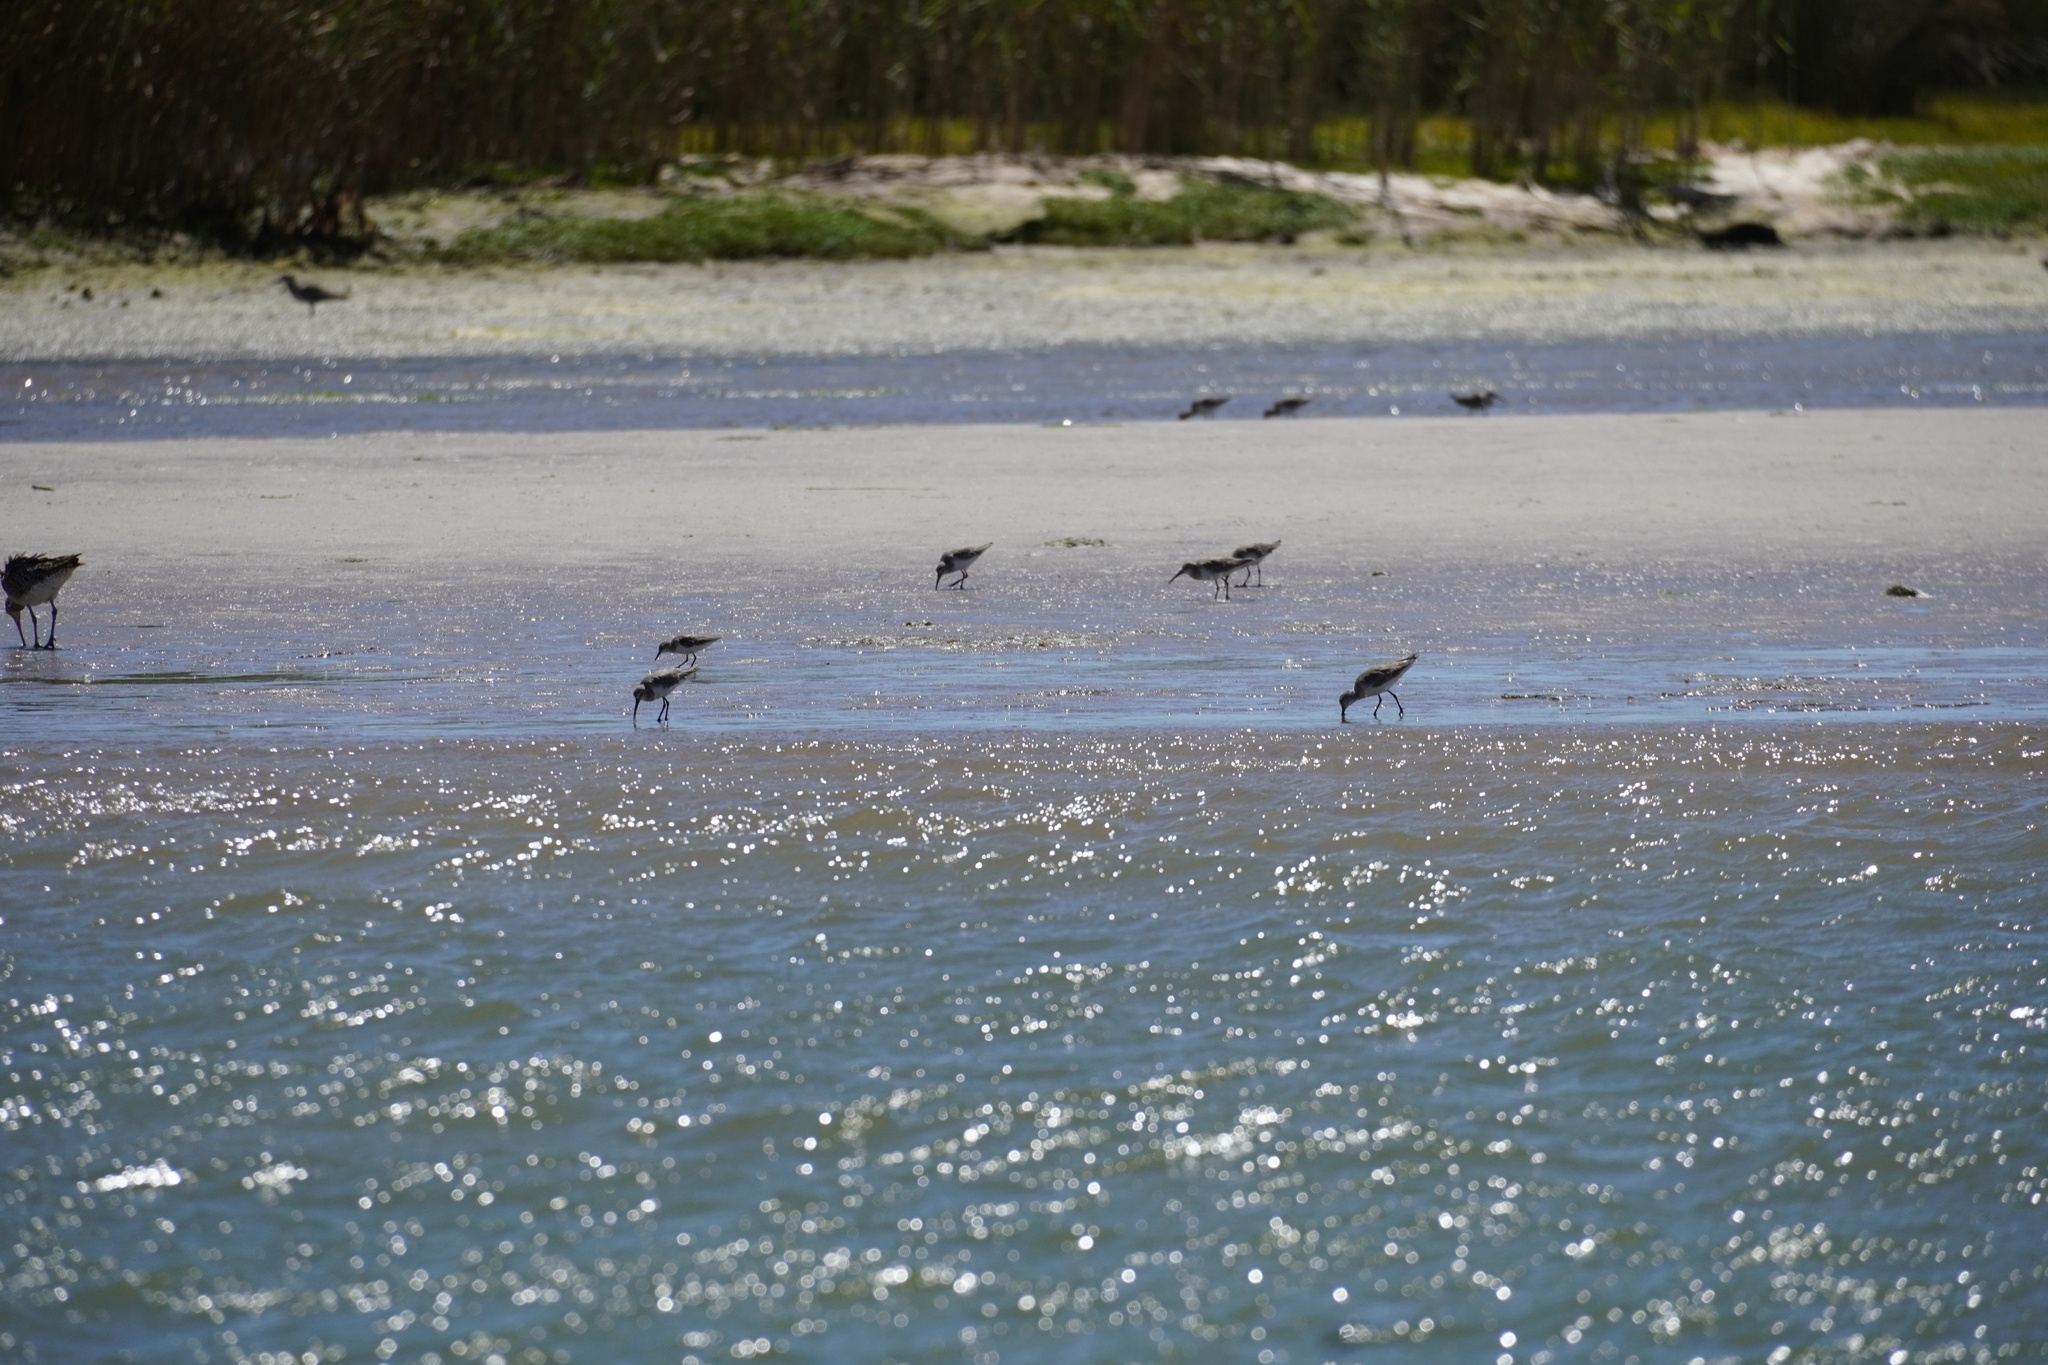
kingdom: Animalia
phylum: Chordata
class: Aves
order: Charadriiformes
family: Scolopacidae
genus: Calidris
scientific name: Calidris ferruginea
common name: Curlew sandpiper
